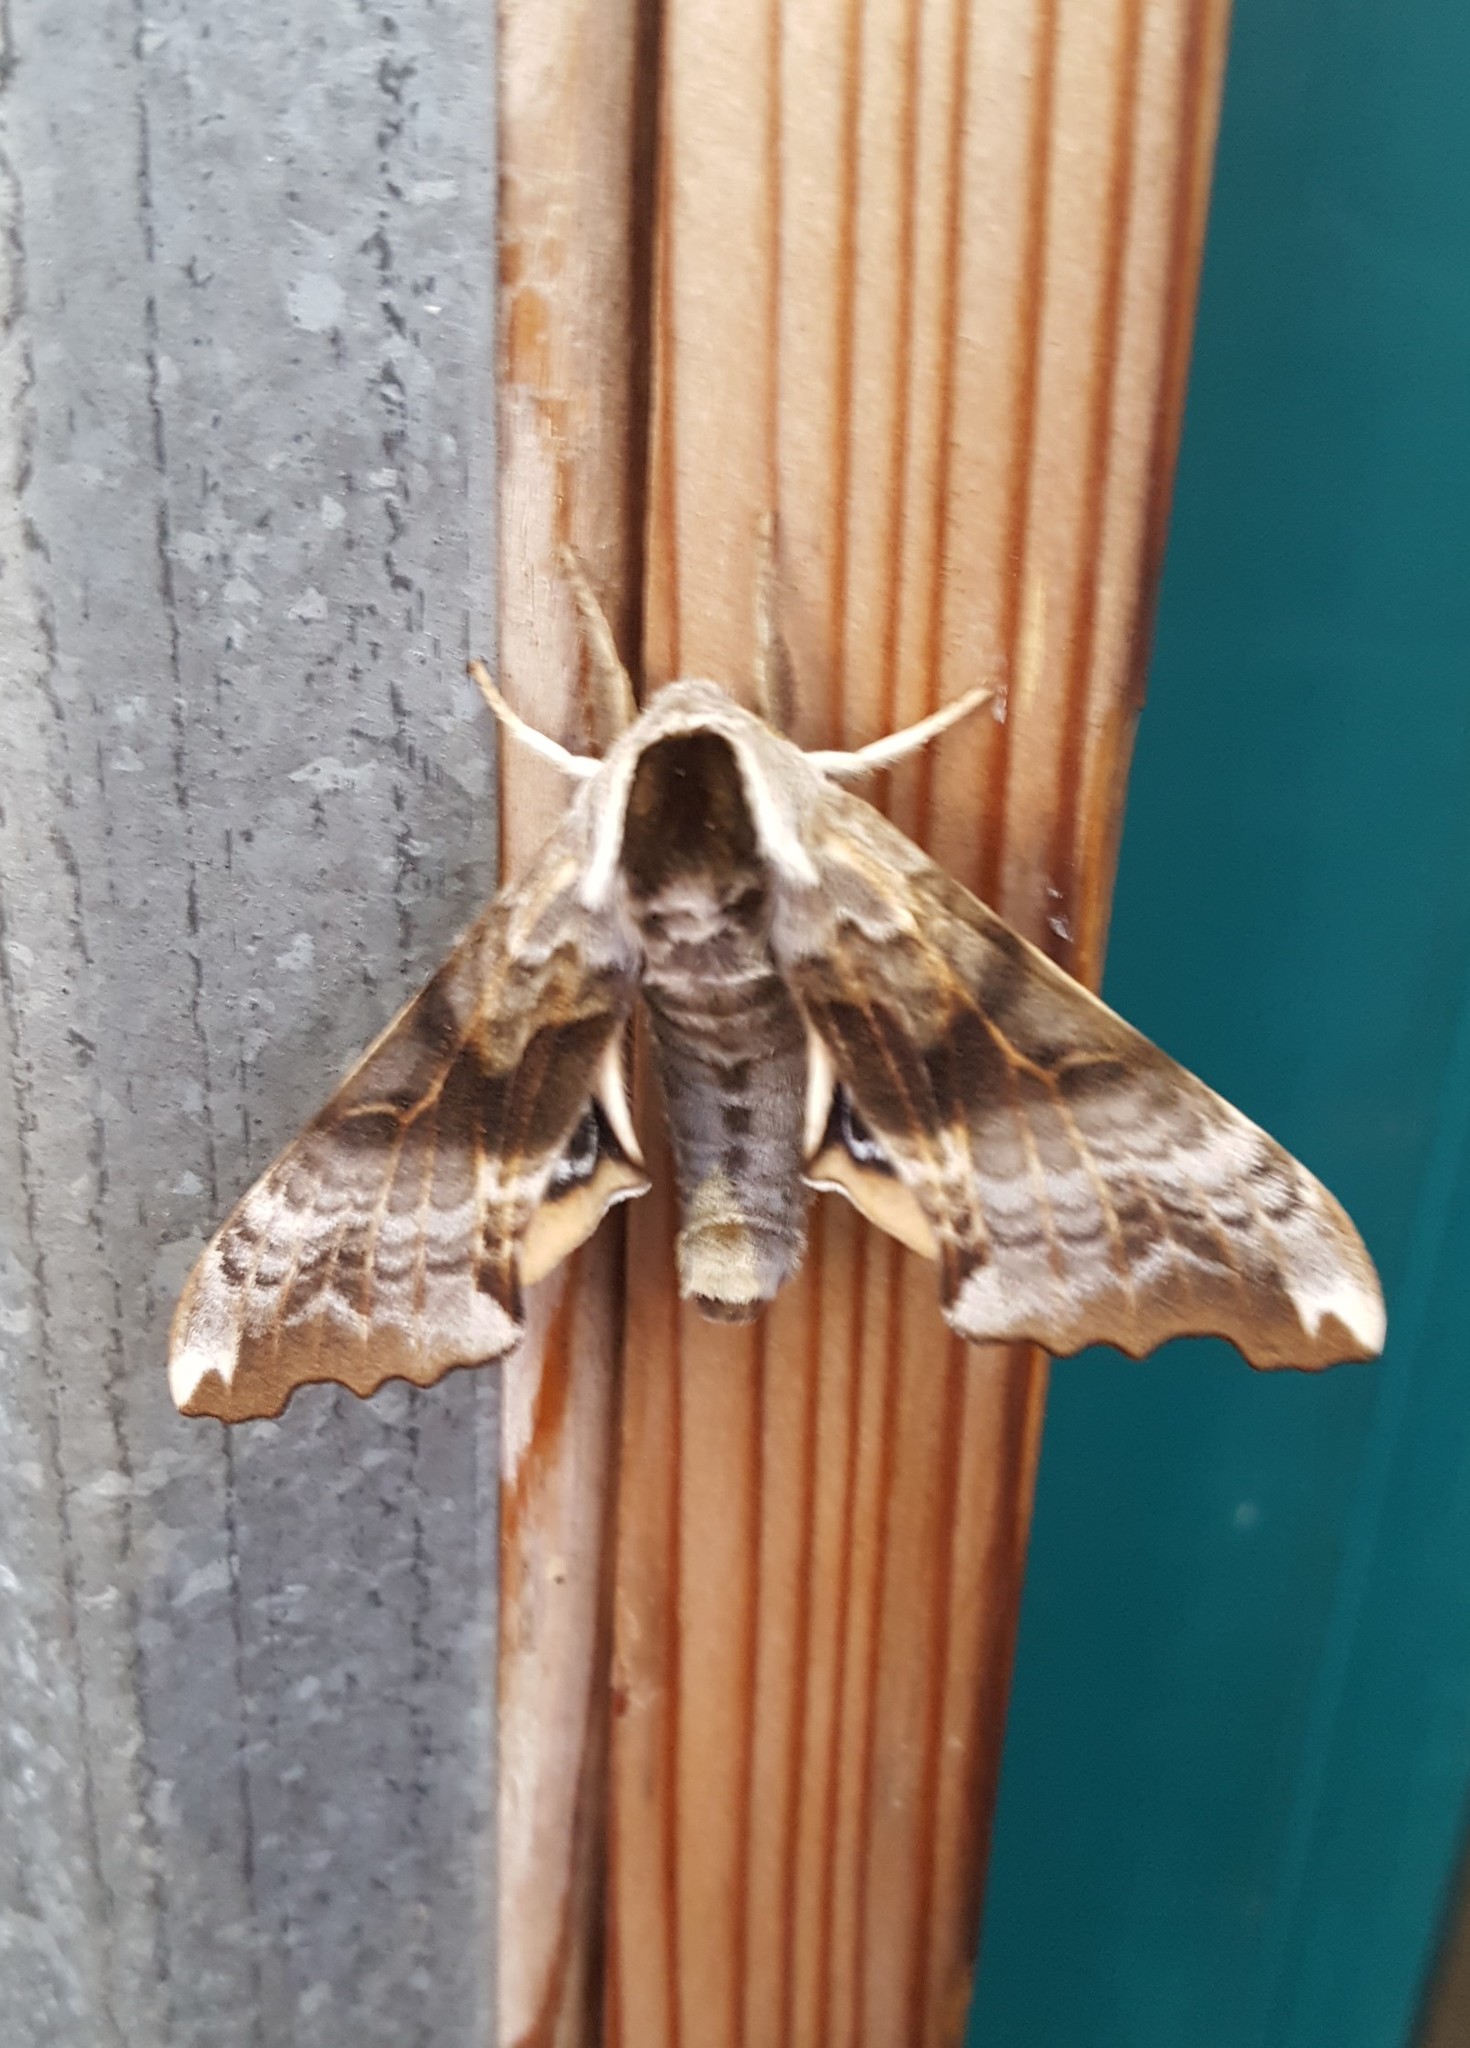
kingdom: Animalia
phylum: Arthropoda
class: Insecta
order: Lepidoptera
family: Sphingidae
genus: Smerinthus
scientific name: Smerinthus cerisyi
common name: Cerisy's sphinx moth
